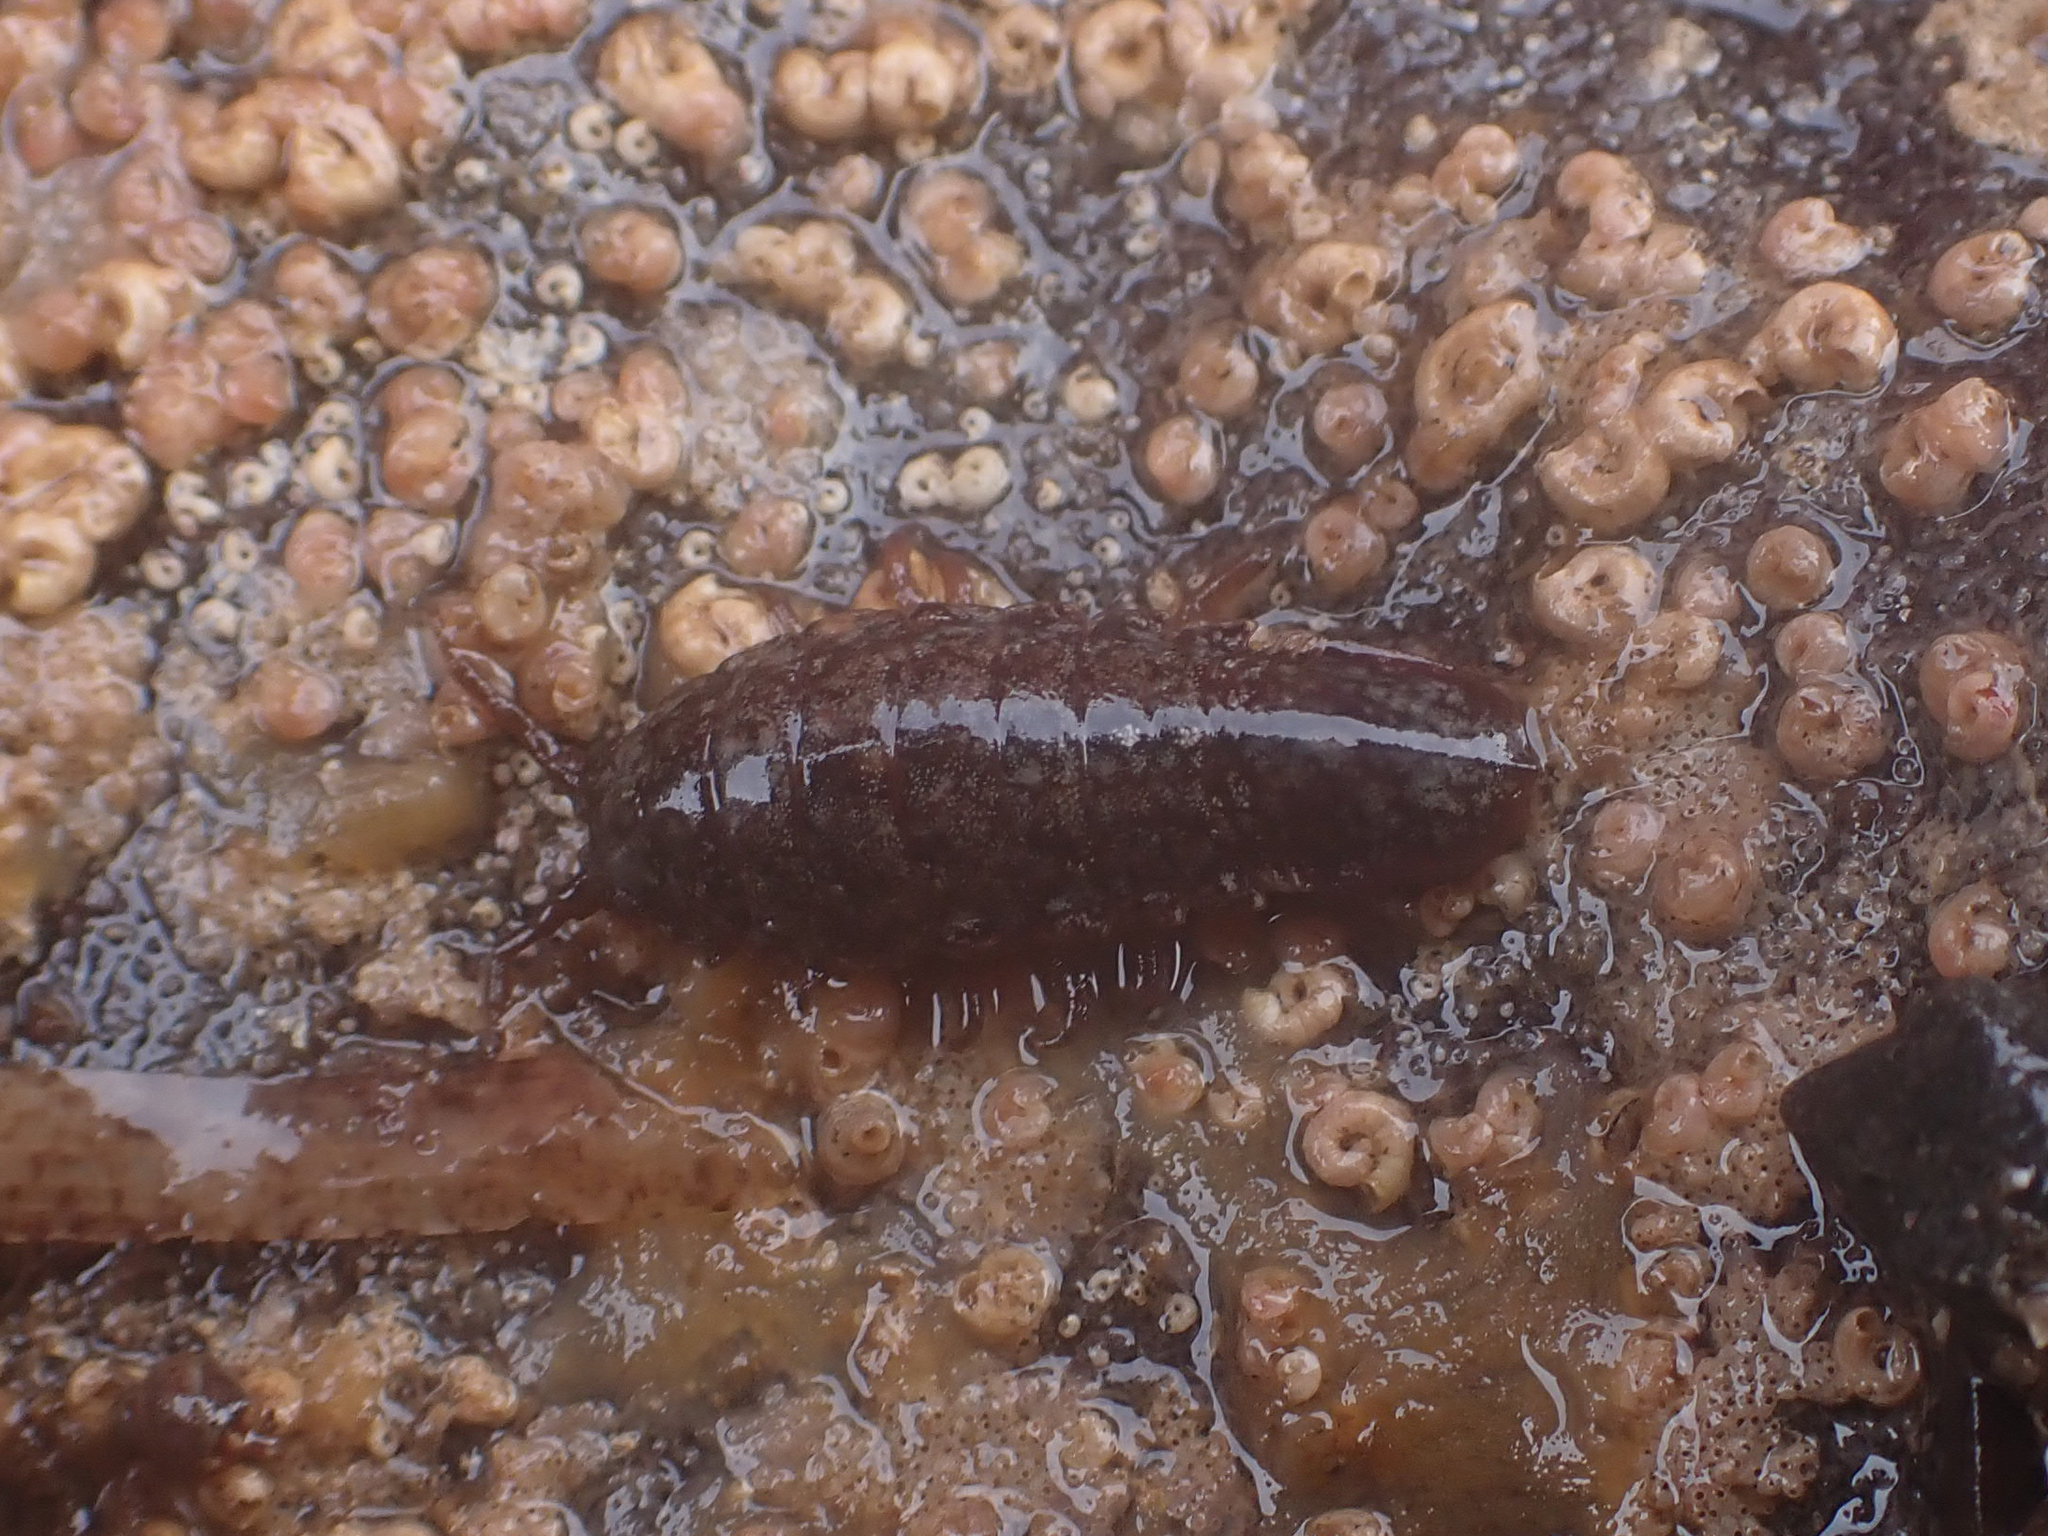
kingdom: Animalia
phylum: Arthropoda
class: Malacostraca
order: Isopoda
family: Idoteidae
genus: Pentidotea
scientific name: Pentidotea wosnesenskii
